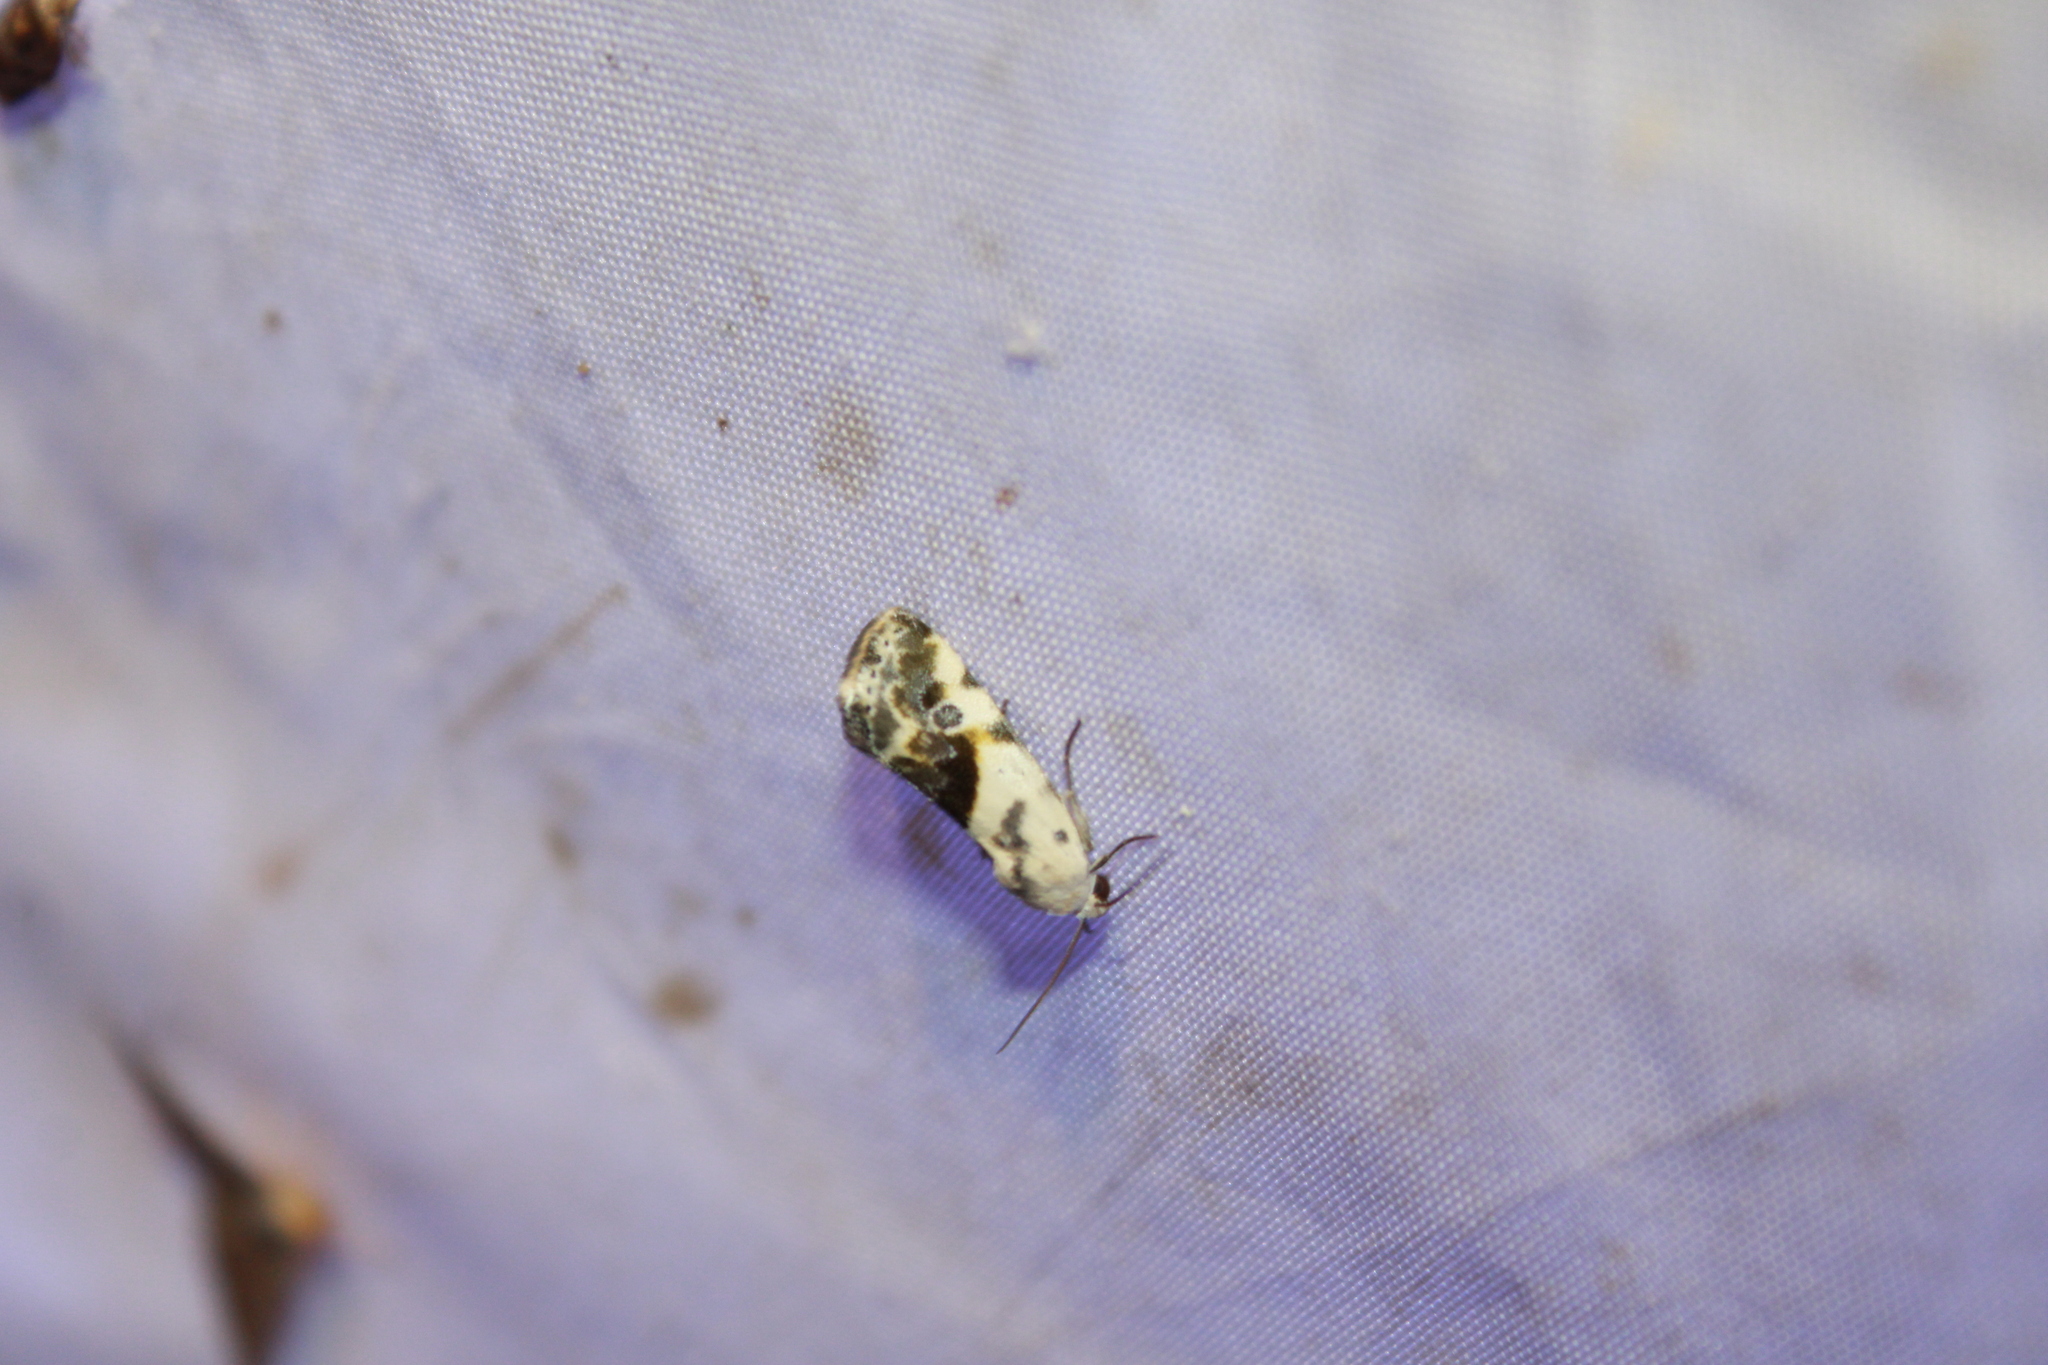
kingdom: Animalia
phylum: Arthropoda
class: Insecta
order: Lepidoptera
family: Noctuidae
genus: Acontia
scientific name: Acontia candefacta
